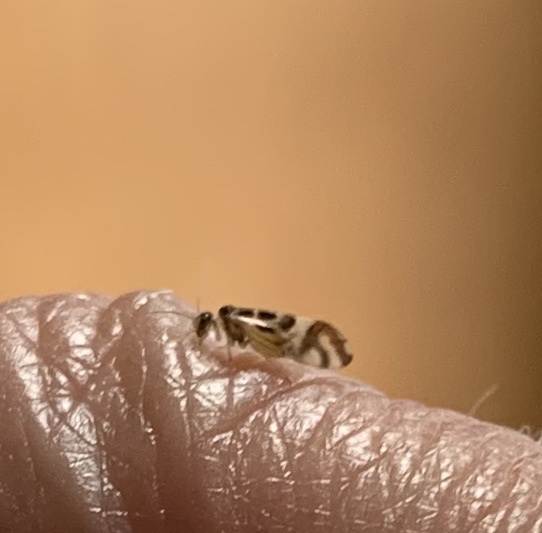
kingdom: Animalia
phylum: Arthropoda
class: Insecta
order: Psocodea
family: Stenopsocidae
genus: Graphopsocus
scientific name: Graphopsocus cruciatus
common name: Lizard bark louse
